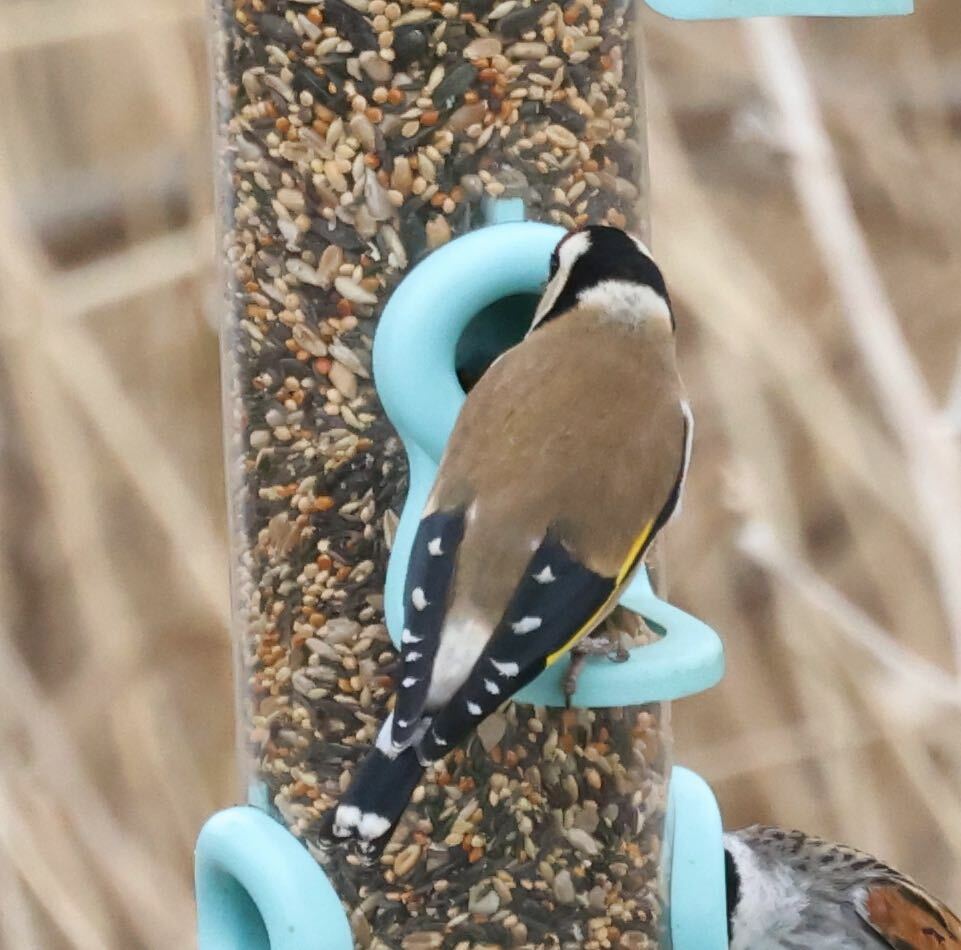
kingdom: Animalia
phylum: Chordata
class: Aves
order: Passeriformes
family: Fringillidae
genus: Carduelis
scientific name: Carduelis carduelis
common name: European goldfinch
